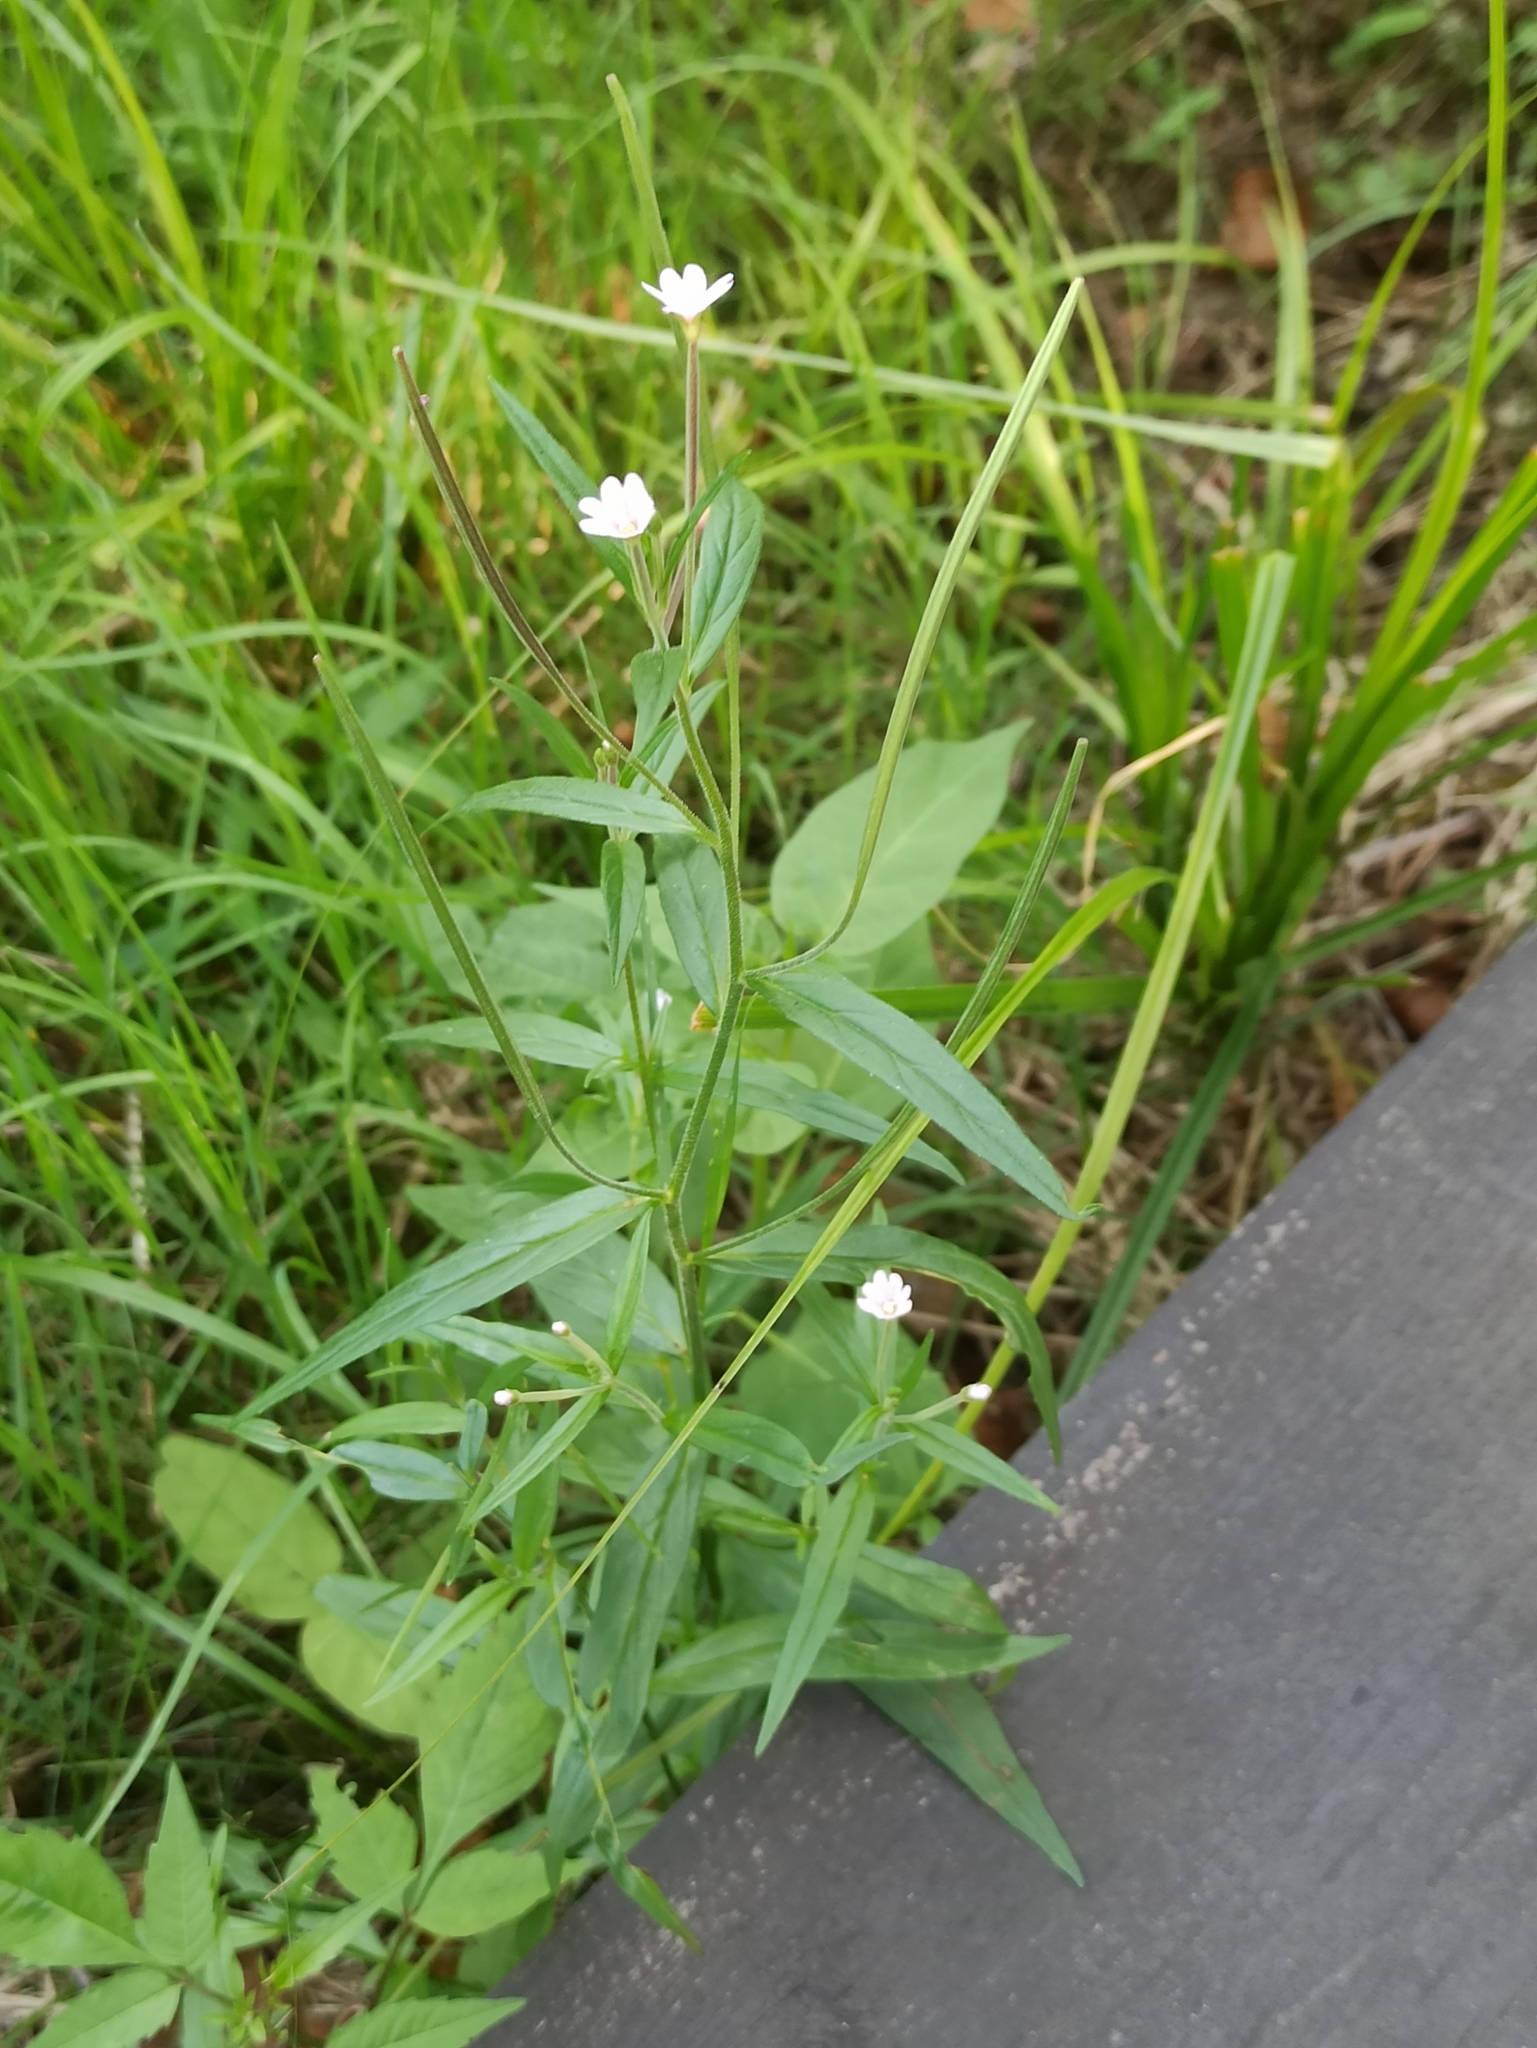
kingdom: Plantae
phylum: Tracheophyta
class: Magnoliopsida
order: Myrtales
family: Onagraceae
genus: Epilobium
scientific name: Epilobium palustre
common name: Marsh willowherb
